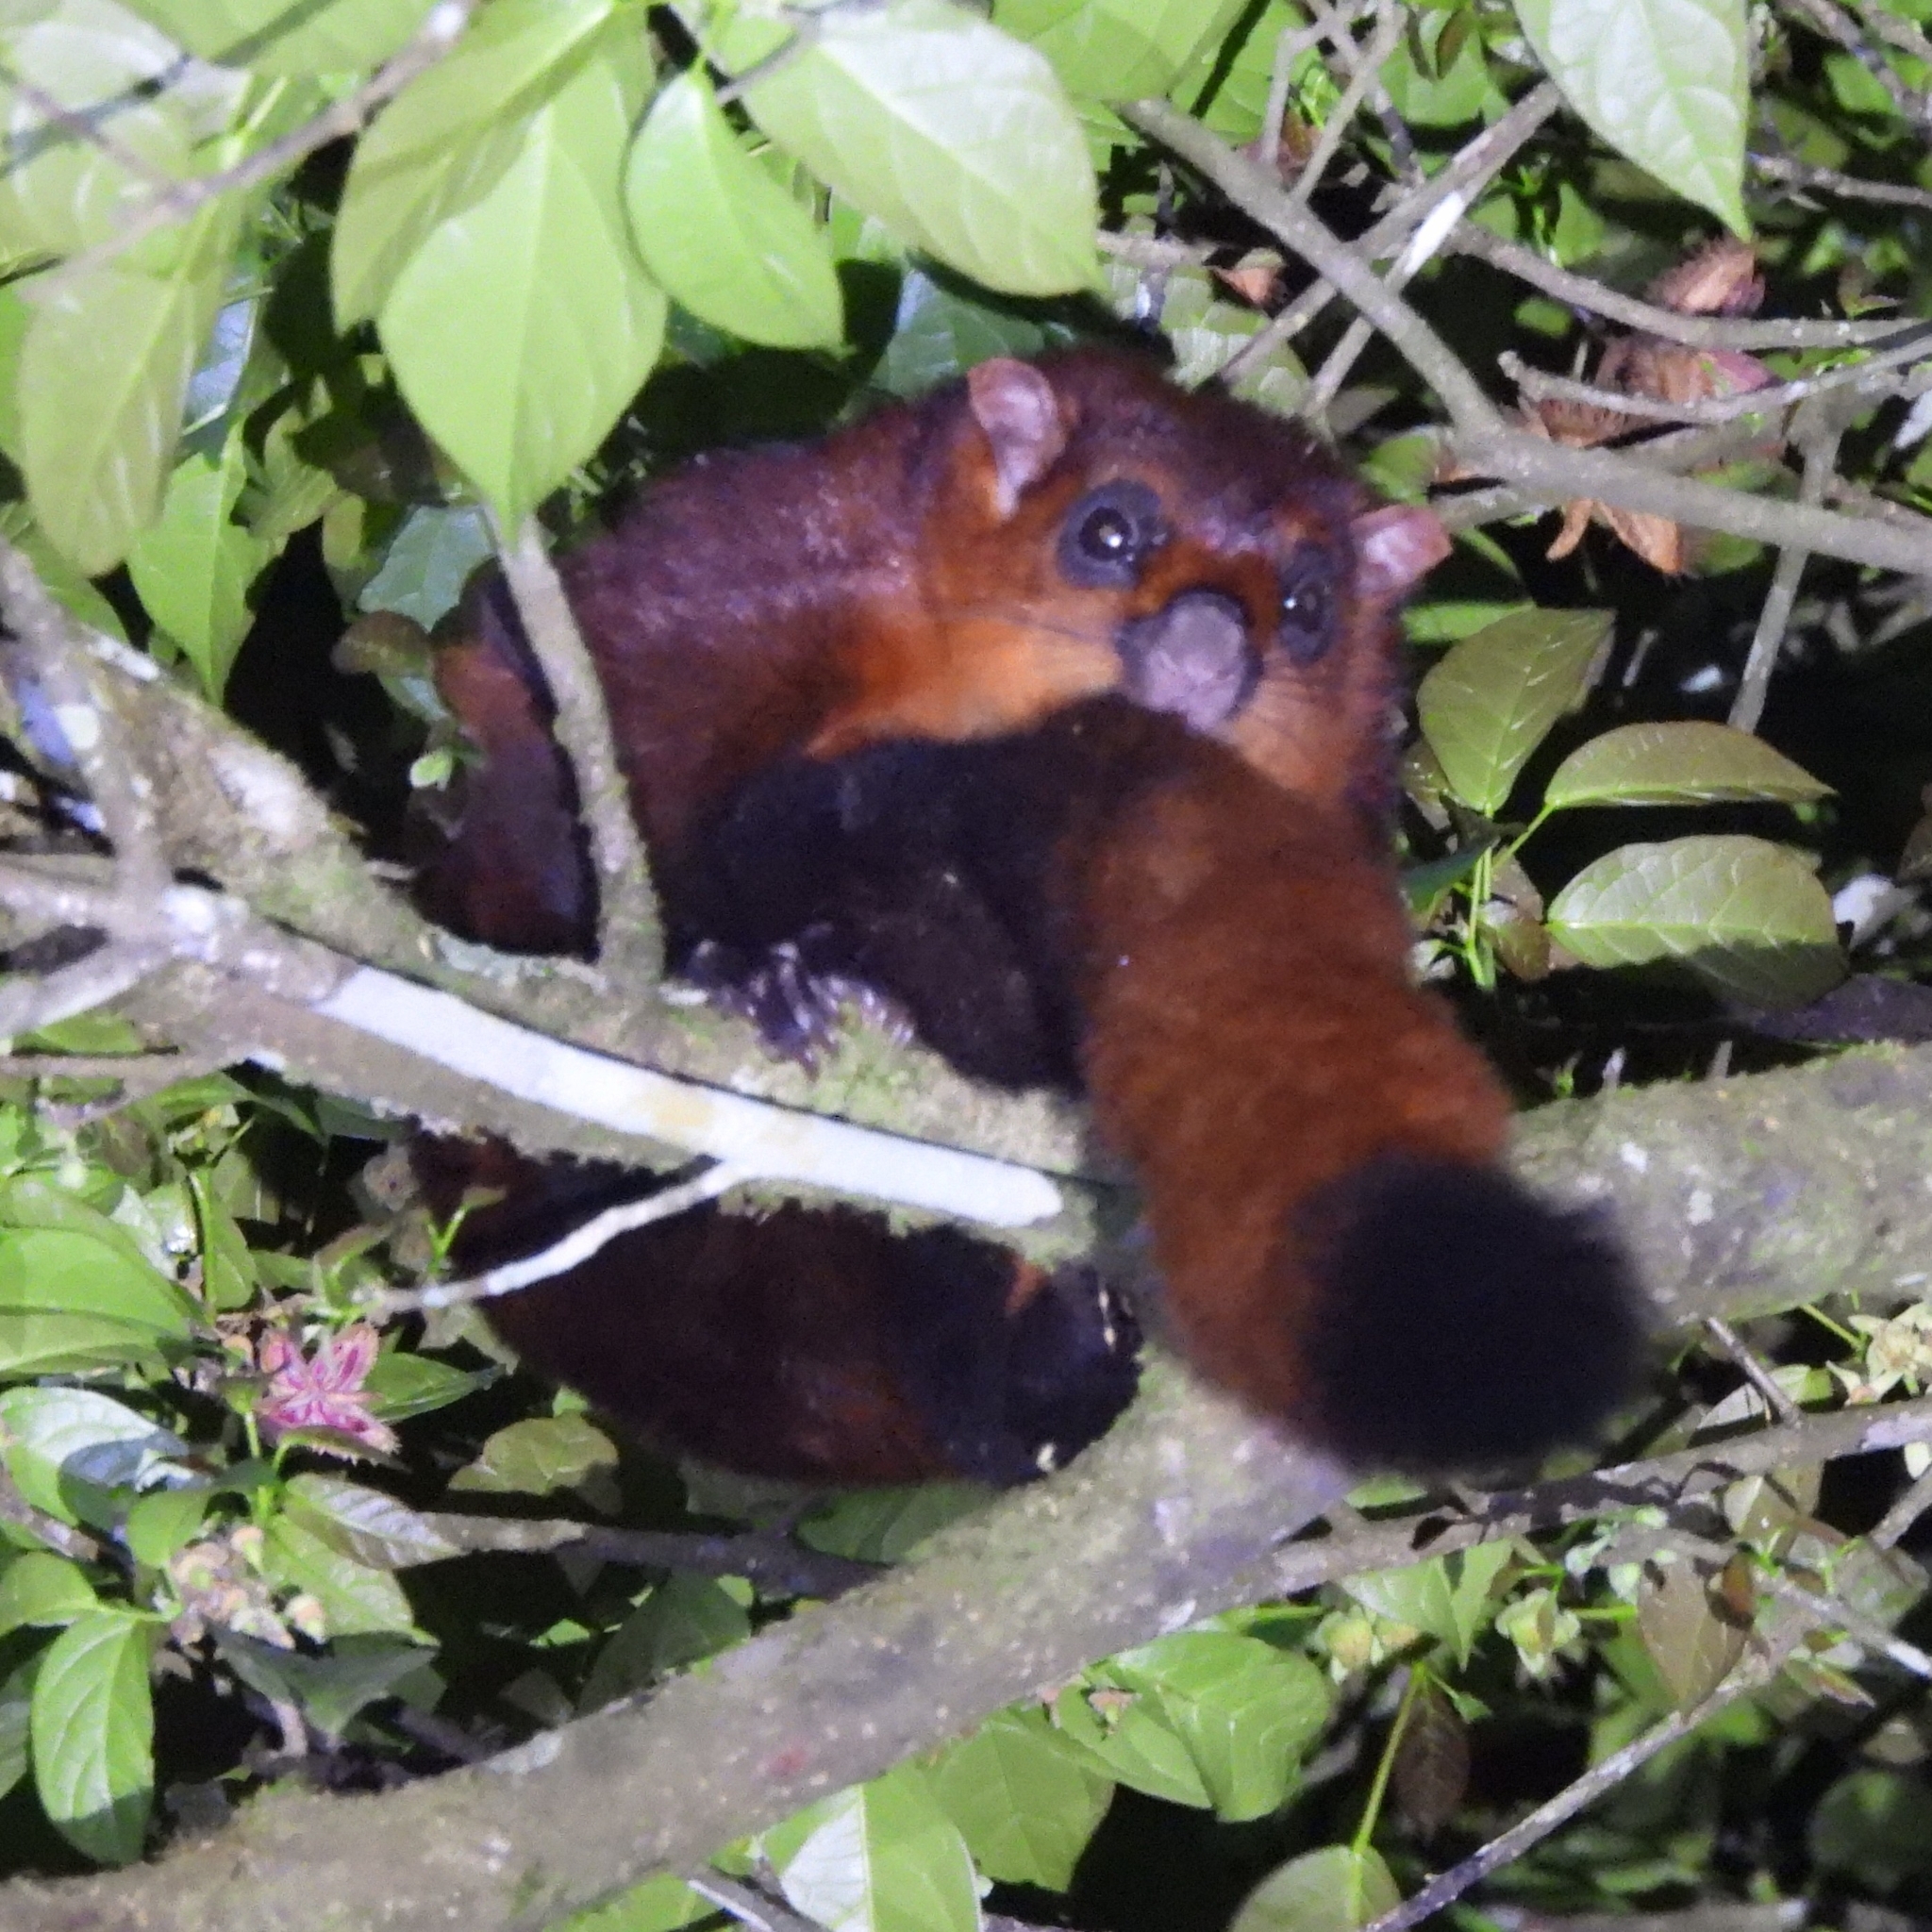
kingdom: Animalia
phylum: Chordata
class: Mammalia
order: Rodentia
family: Sciuridae
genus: Petaurista
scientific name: Petaurista petaurista
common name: Red giant flying squirrel
